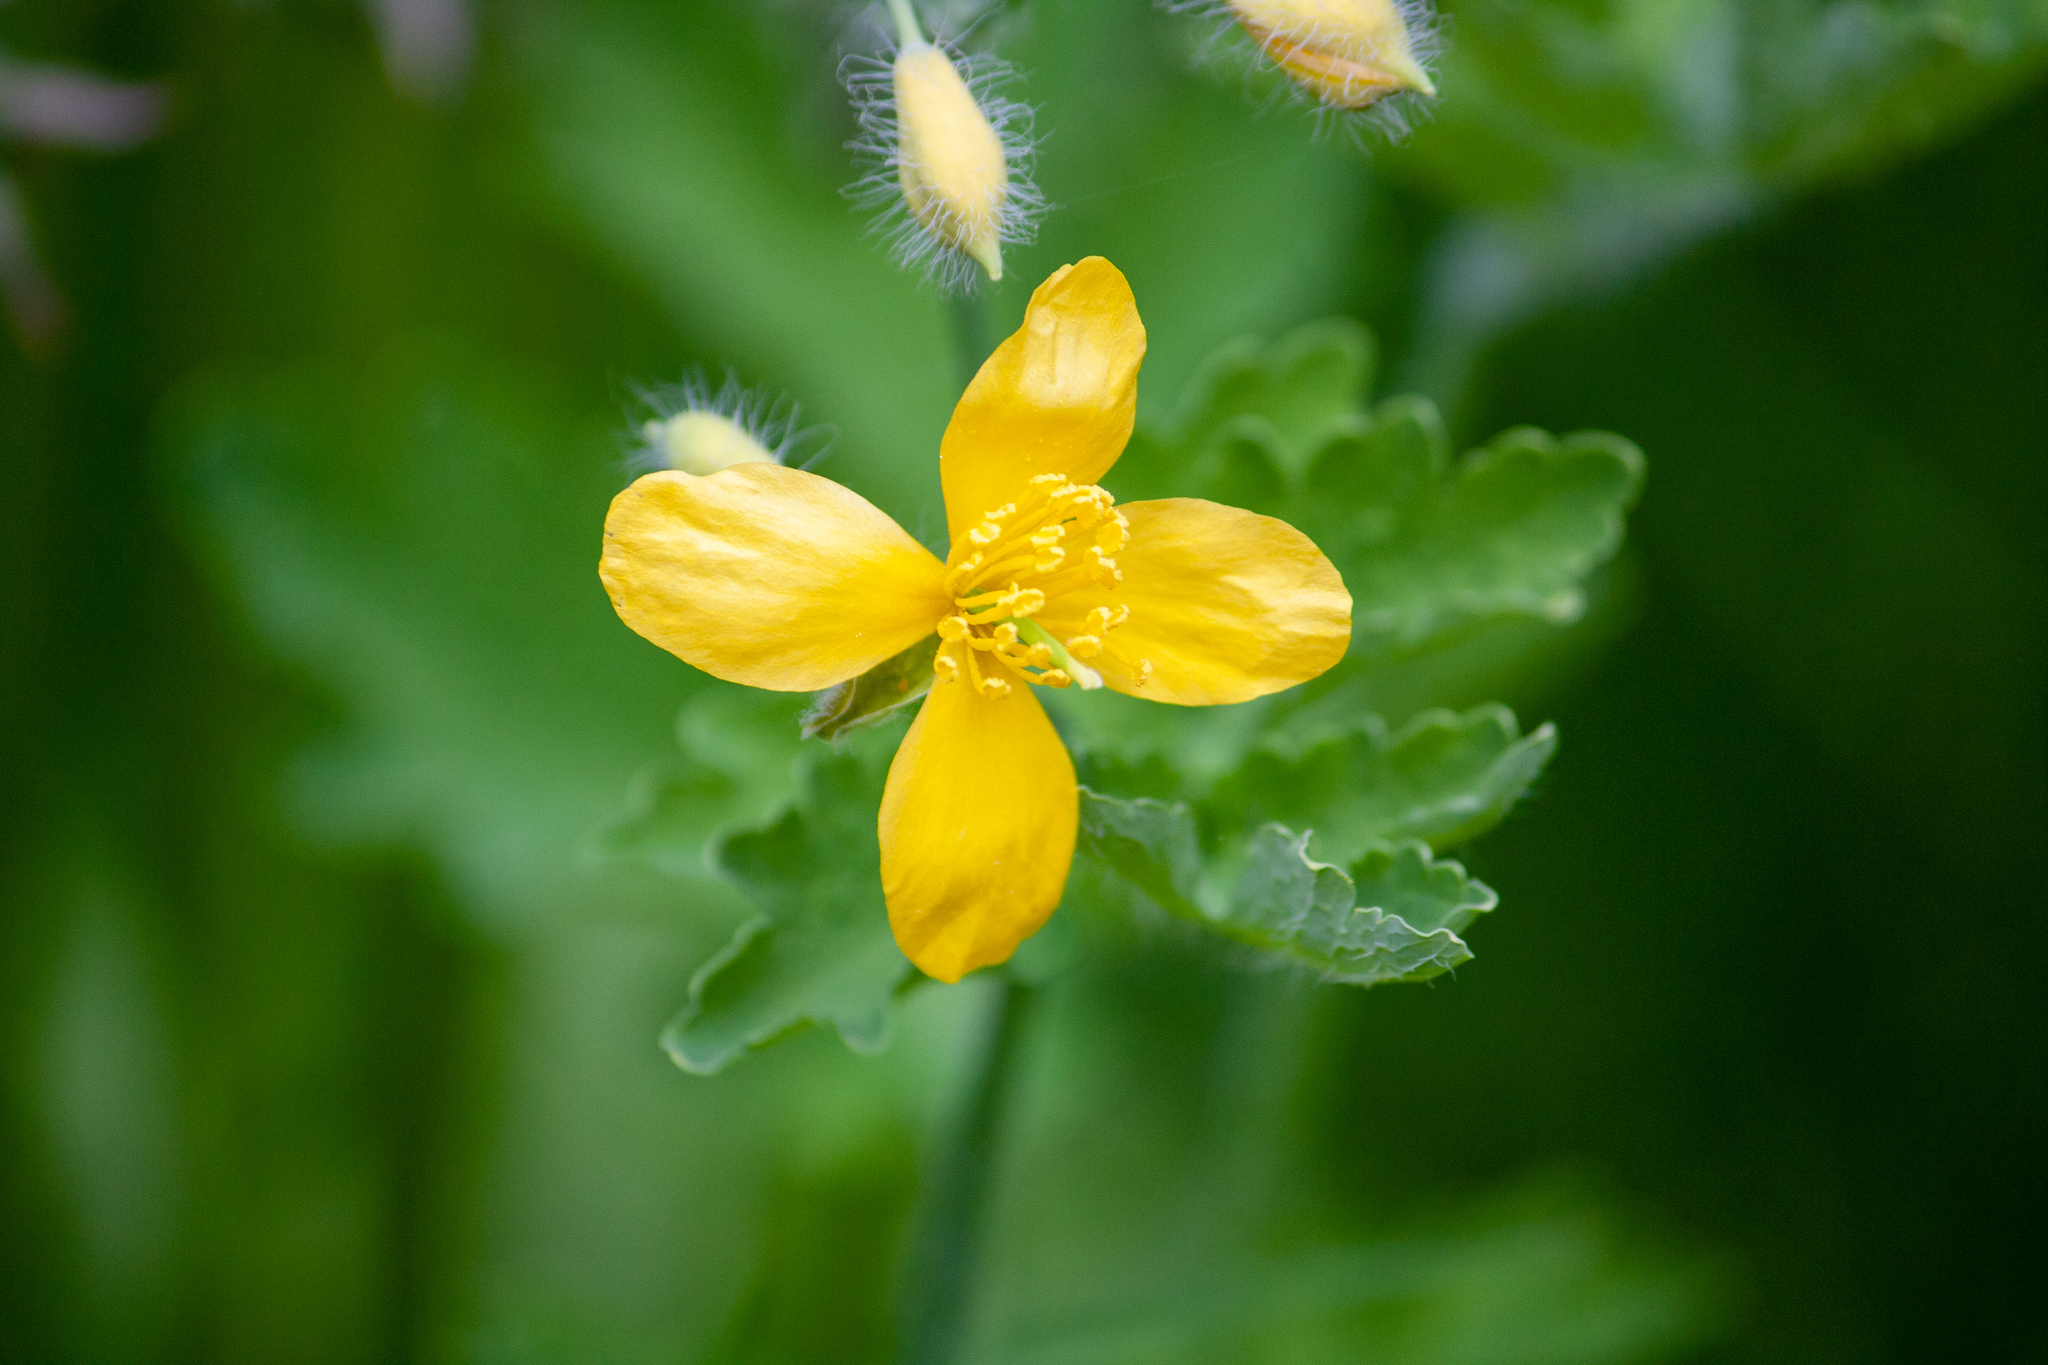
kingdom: Plantae
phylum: Tracheophyta
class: Magnoliopsida
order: Ranunculales
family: Papaveraceae
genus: Chelidonium
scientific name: Chelidonium majus
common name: Greater celandine
